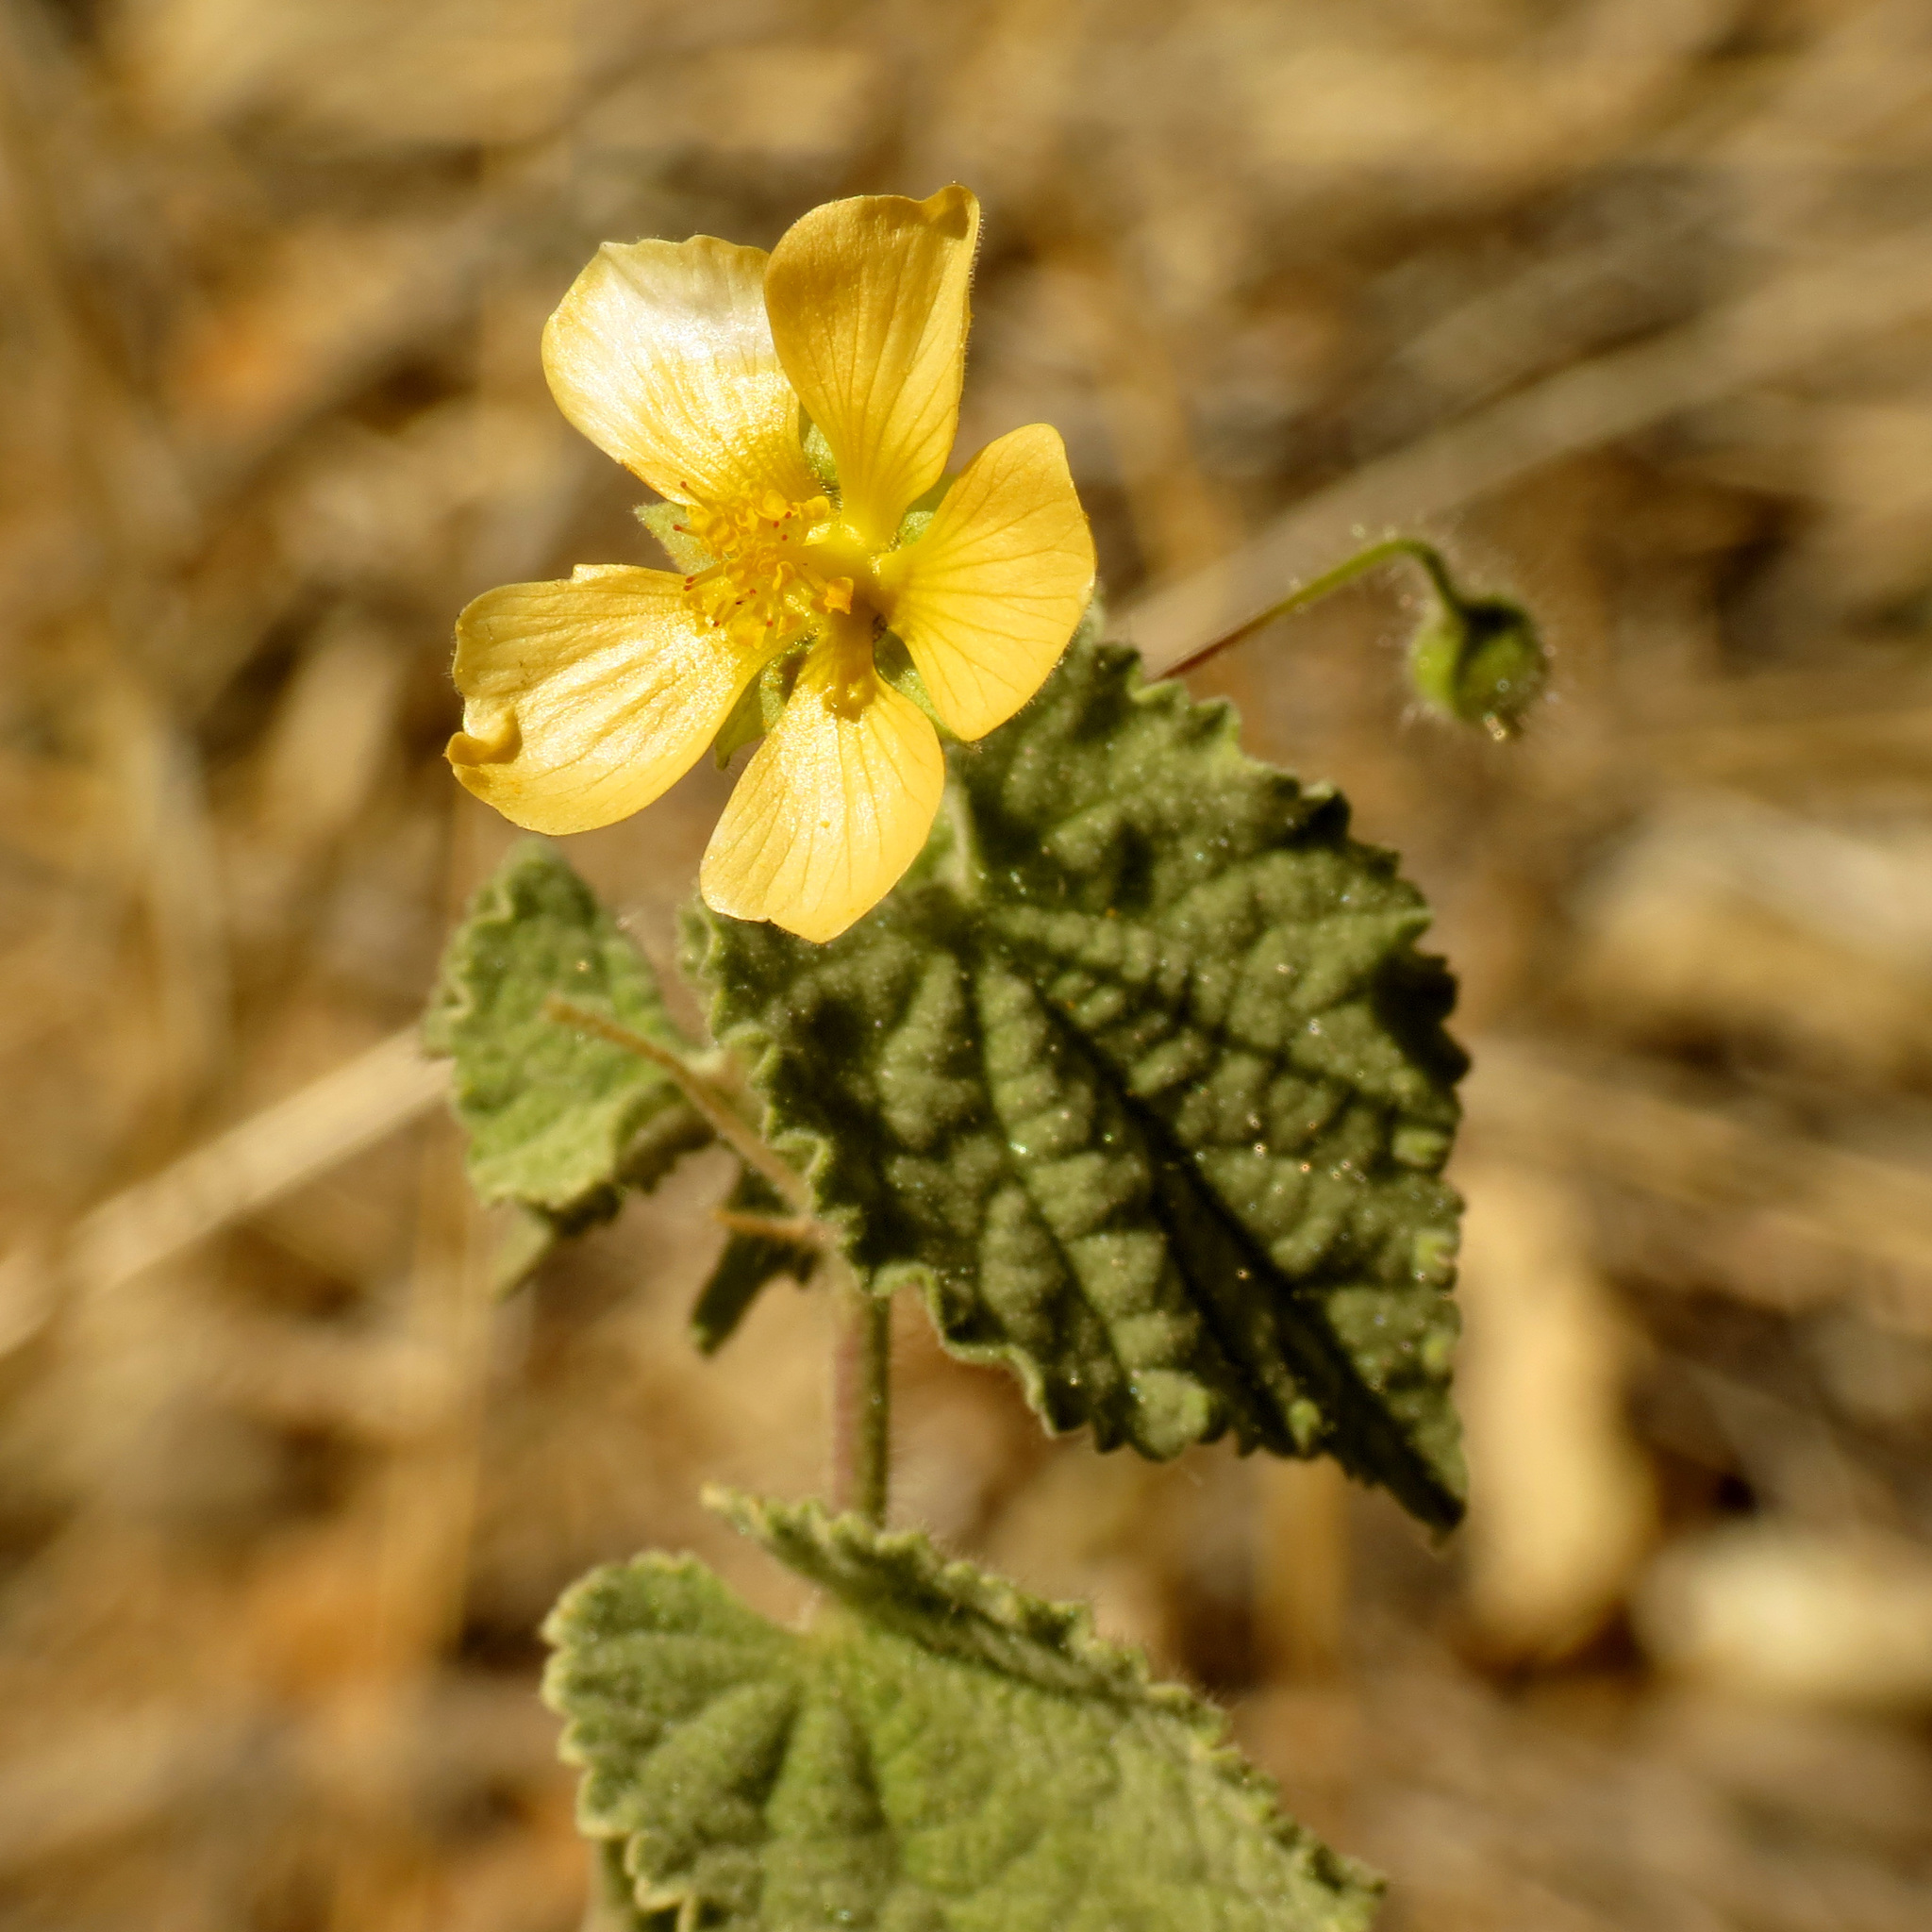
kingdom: Plantae
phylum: Tracheophyta
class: Magnoliopsida
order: Malvales
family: Malvaceae
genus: Herissantia
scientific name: Herissantia crispa
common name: Bladdermallow
